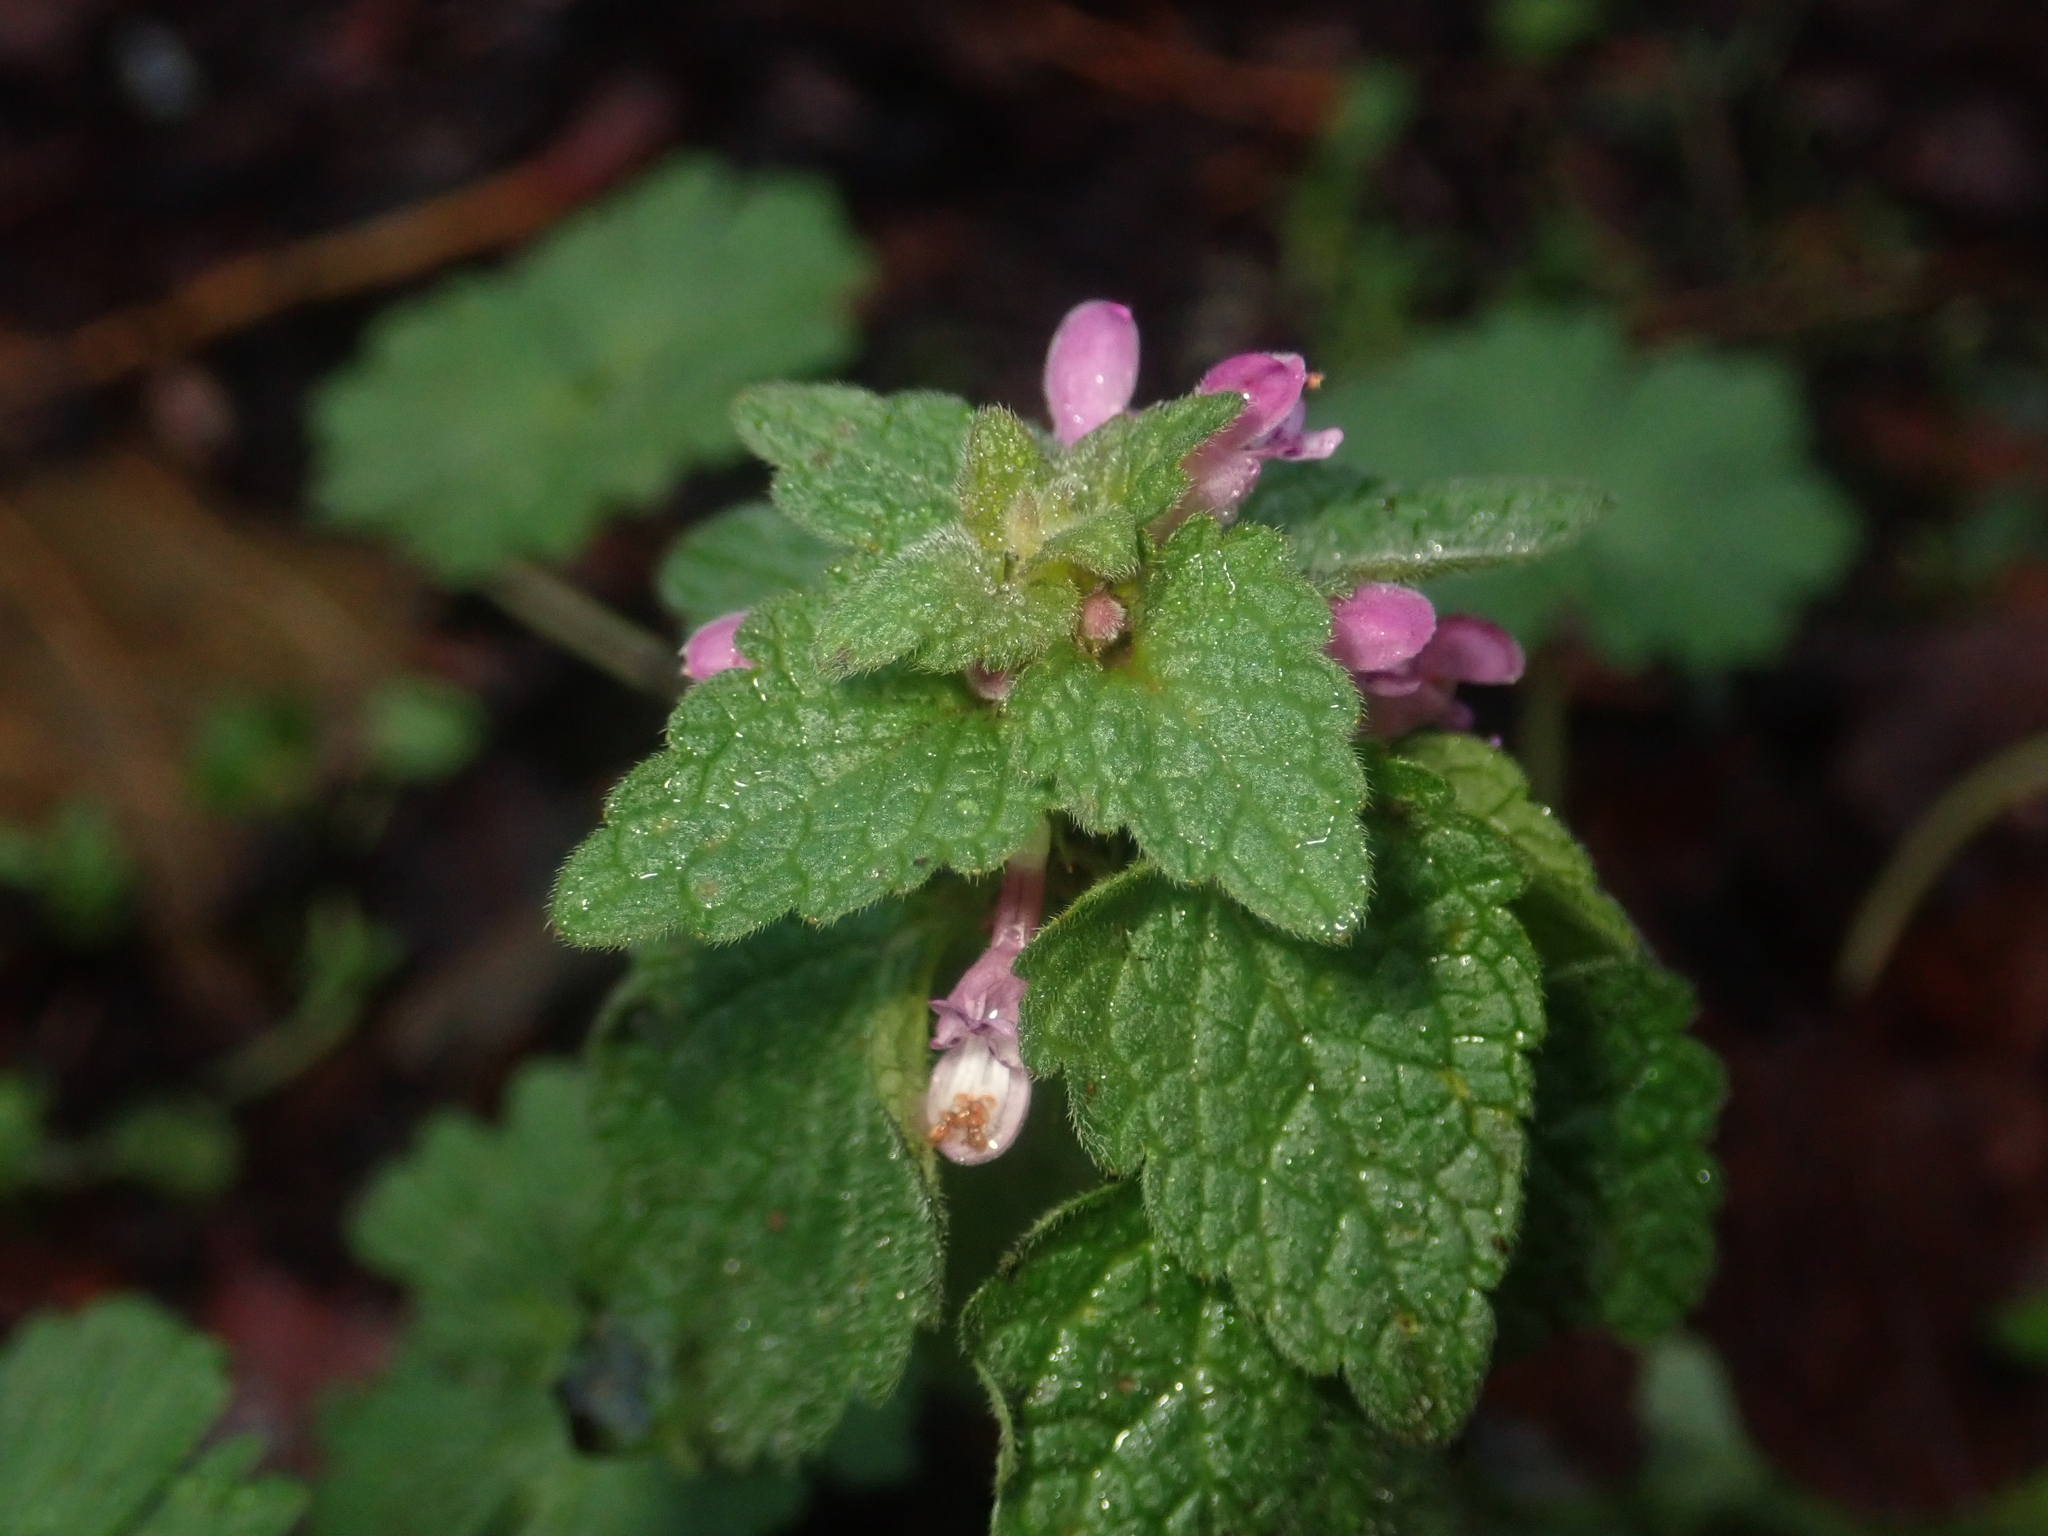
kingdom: Plantae
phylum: Tracheophyta
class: Magnoliopsida
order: Lamiales
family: Lamiaceae
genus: Lamium
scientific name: Lamium purpureum
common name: Red dead-nettle
